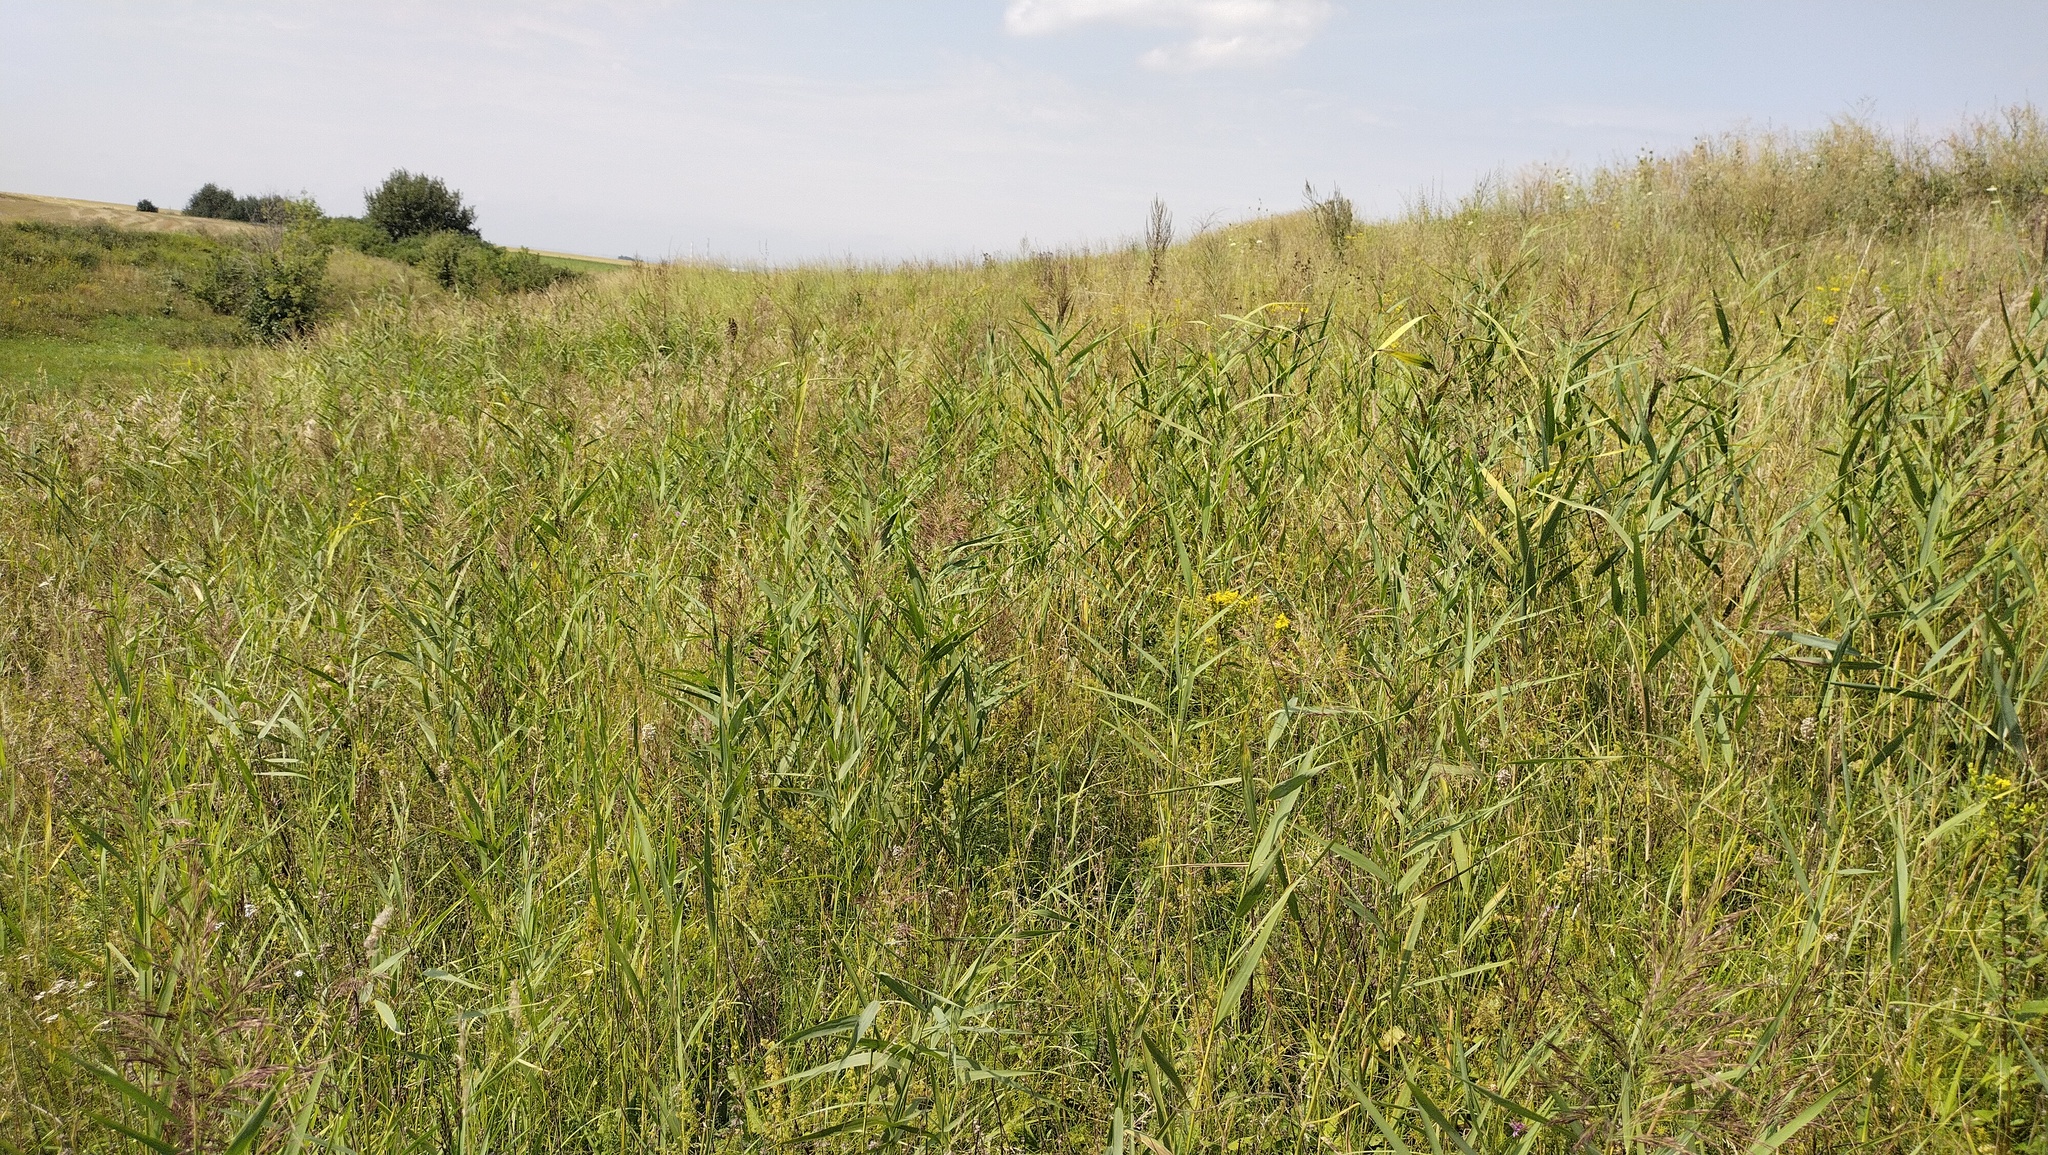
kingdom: Plantae
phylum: Tracheophyta
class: Liliopsida
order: Poales
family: Poaceae
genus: Phragmites
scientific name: Phragmites australis
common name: Common reed
